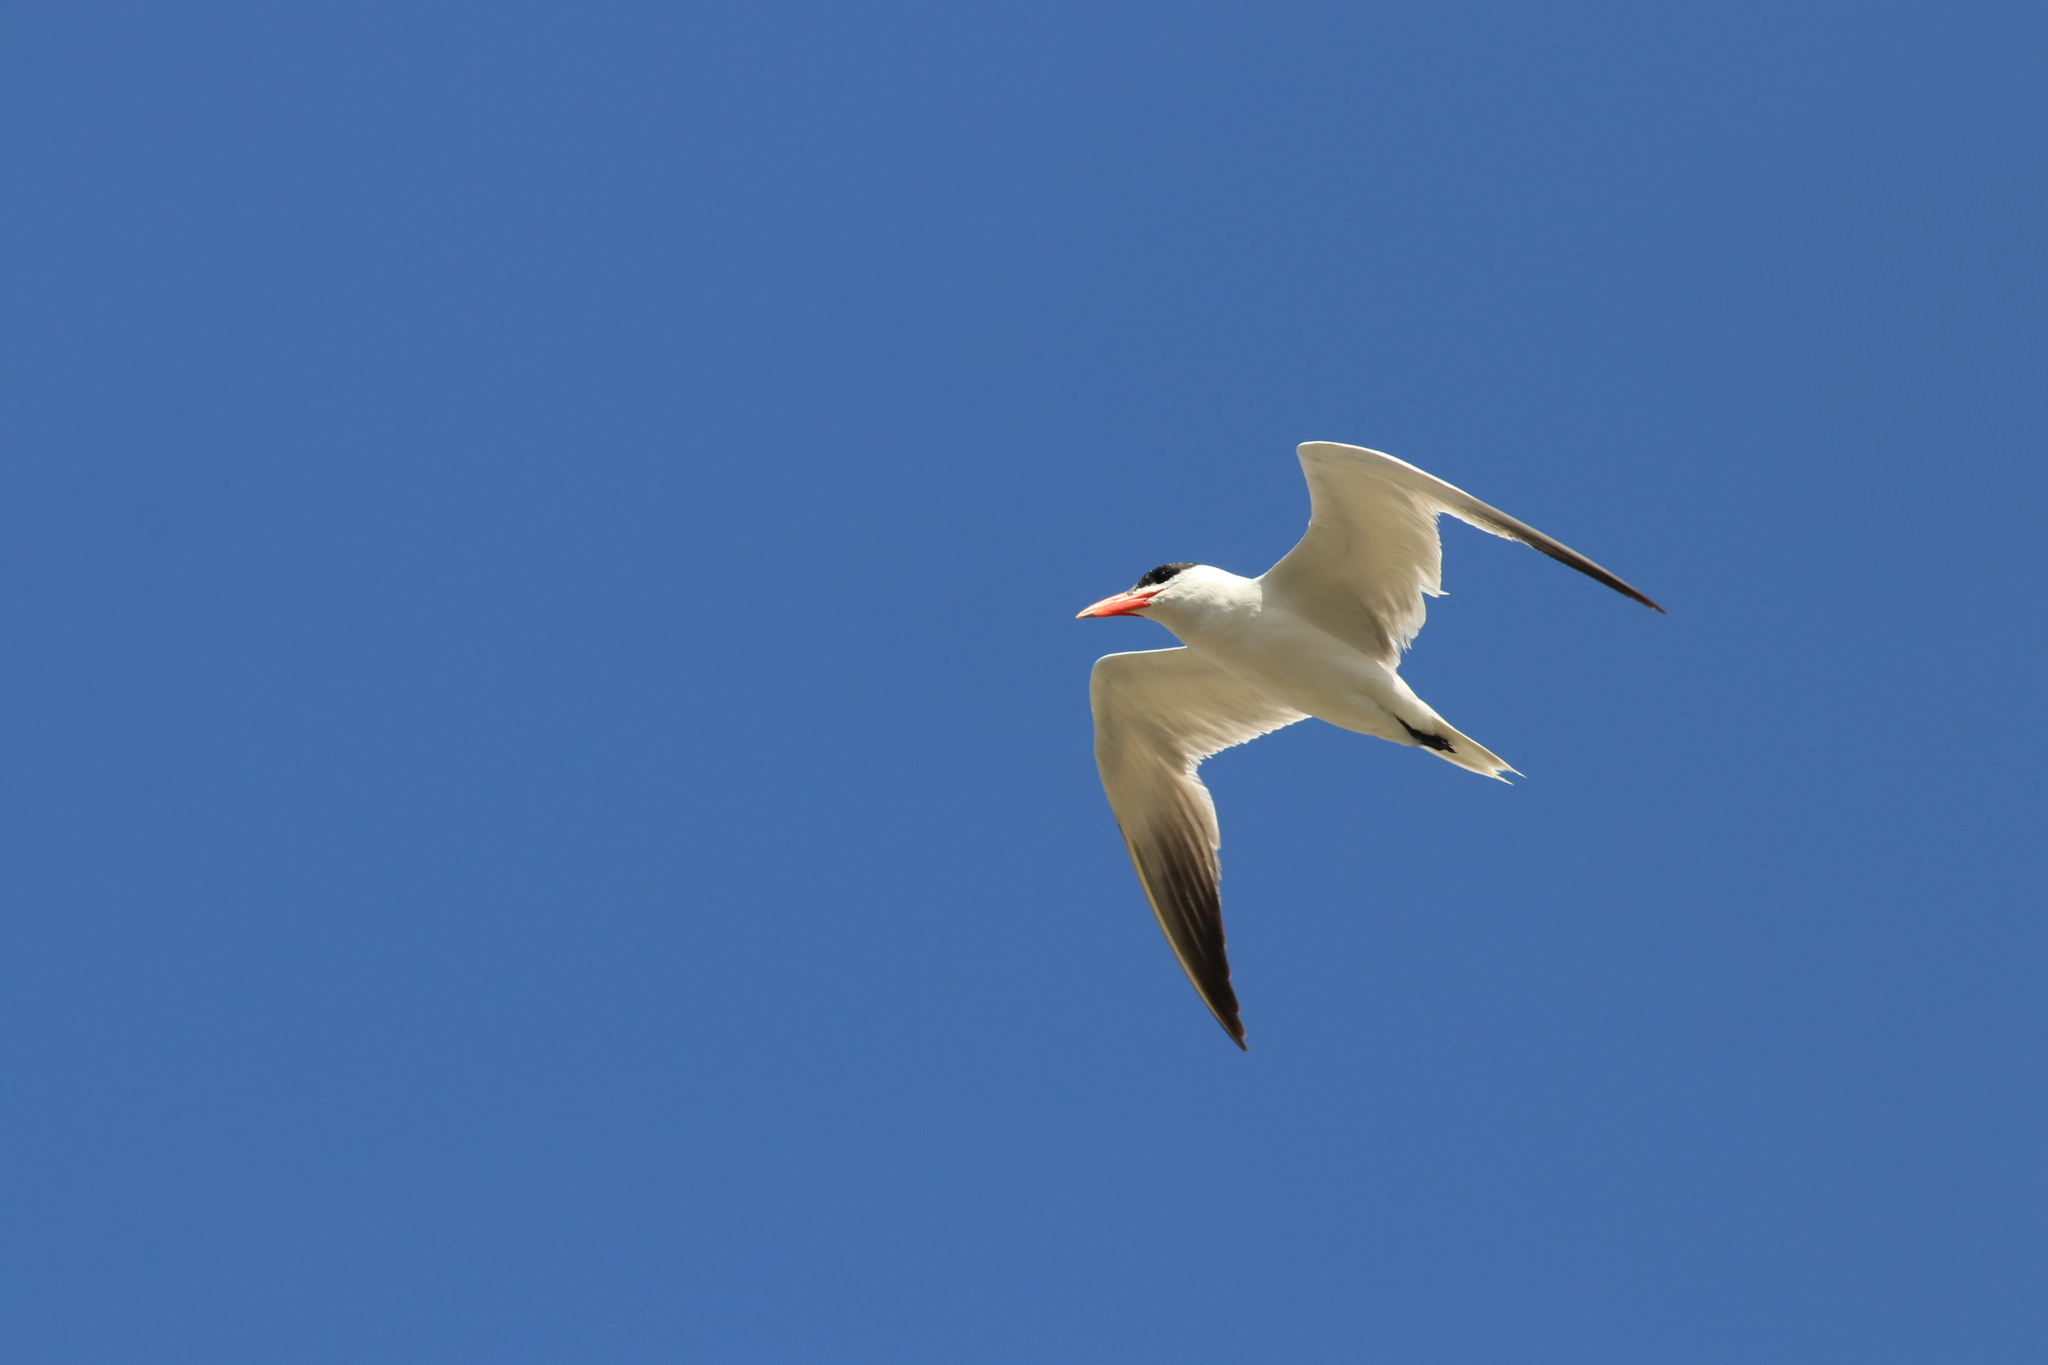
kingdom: Animalia
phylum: Chordata
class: Aves
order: Charadriiformes
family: Laridae
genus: Hydroprogne
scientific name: Hydroprogne caspia
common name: Caspian tern
